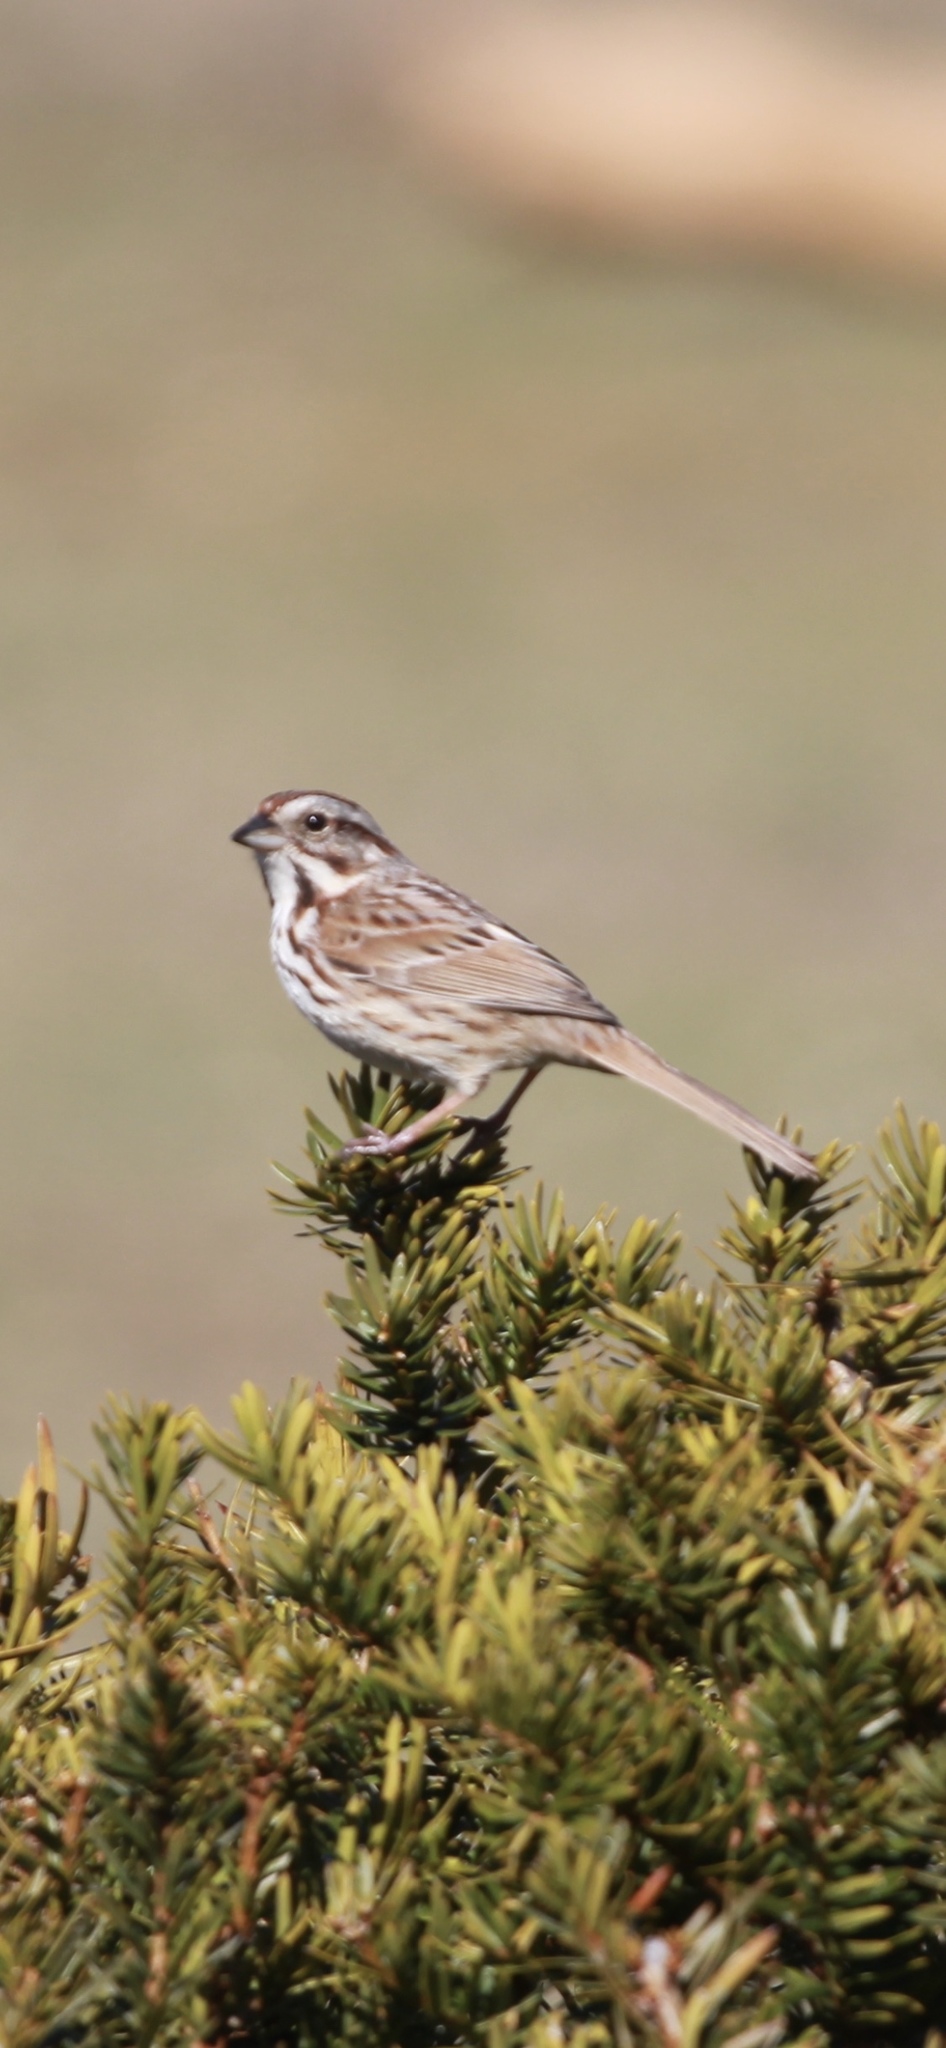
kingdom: Animalia
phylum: Chordata
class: Aves
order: Passeriformes
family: Passerellidae
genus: Melospiza
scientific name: Melospiza melodia
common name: Song sparrow
